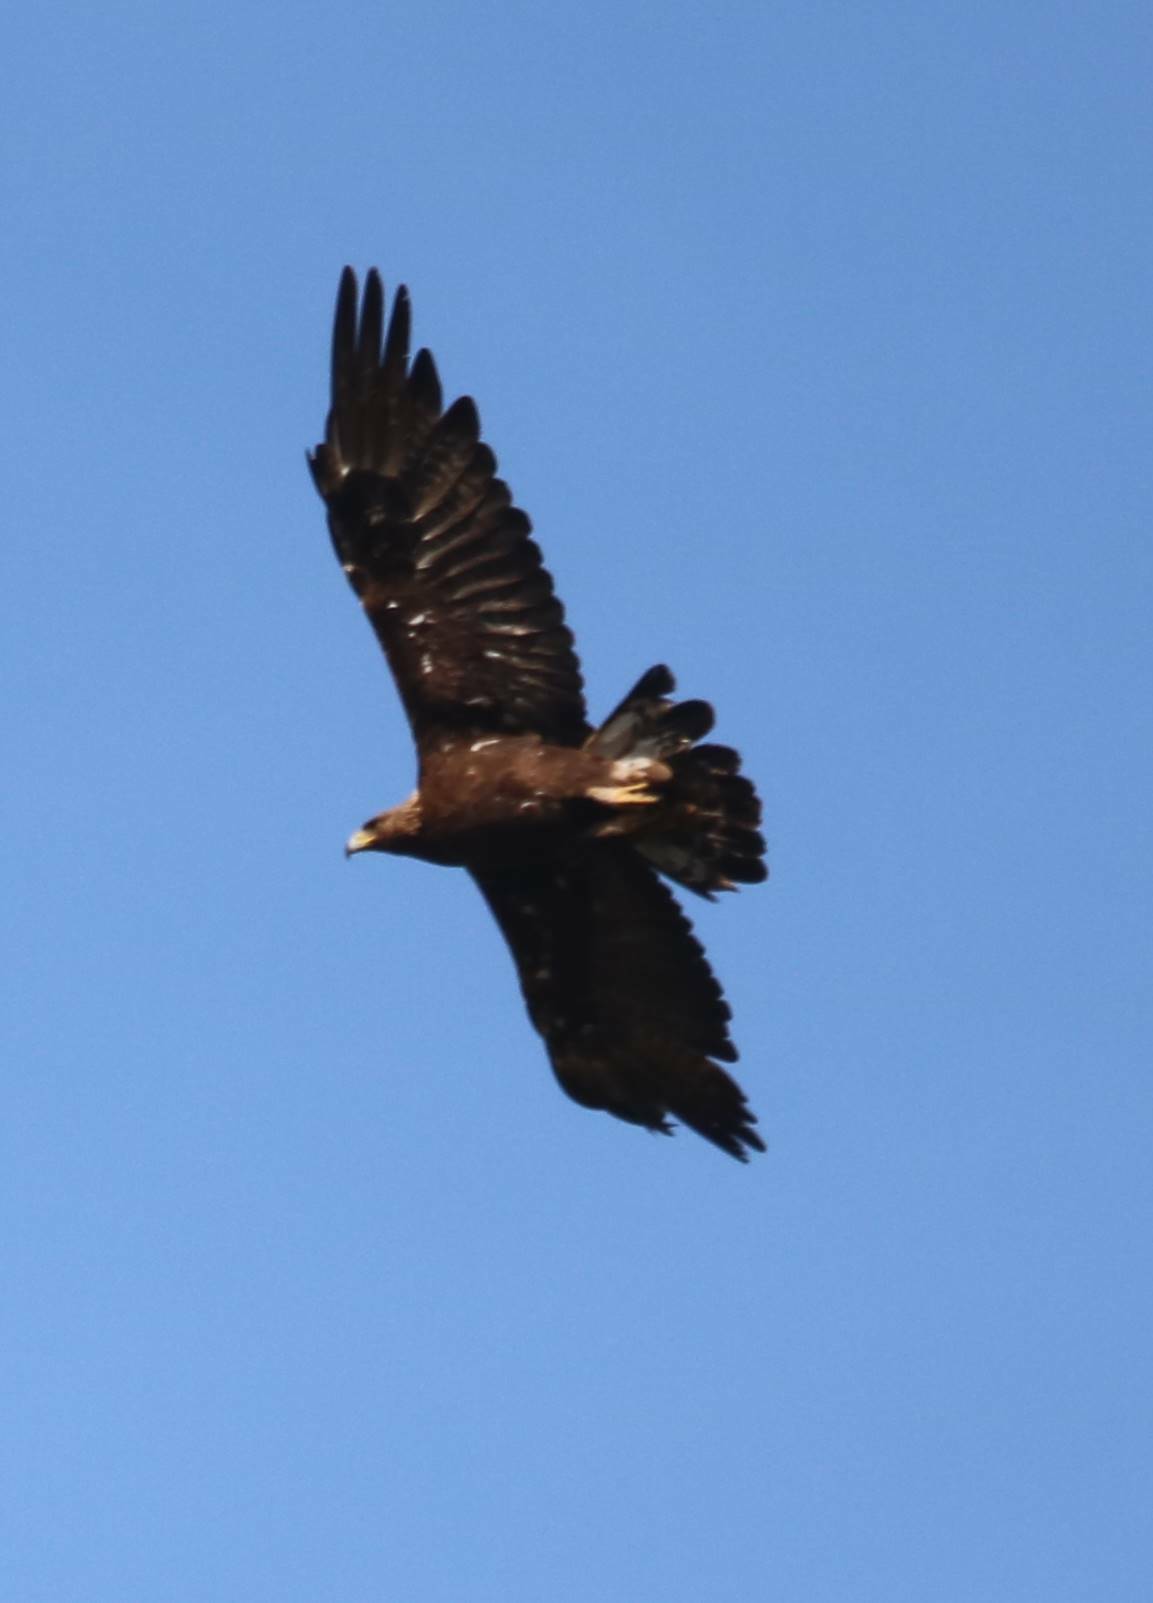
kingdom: Animalia
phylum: Chordata
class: Aves
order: Accipitriformes
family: Accipitridae
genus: Aquila
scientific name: Aquila chrysaetos
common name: Golden eagle
